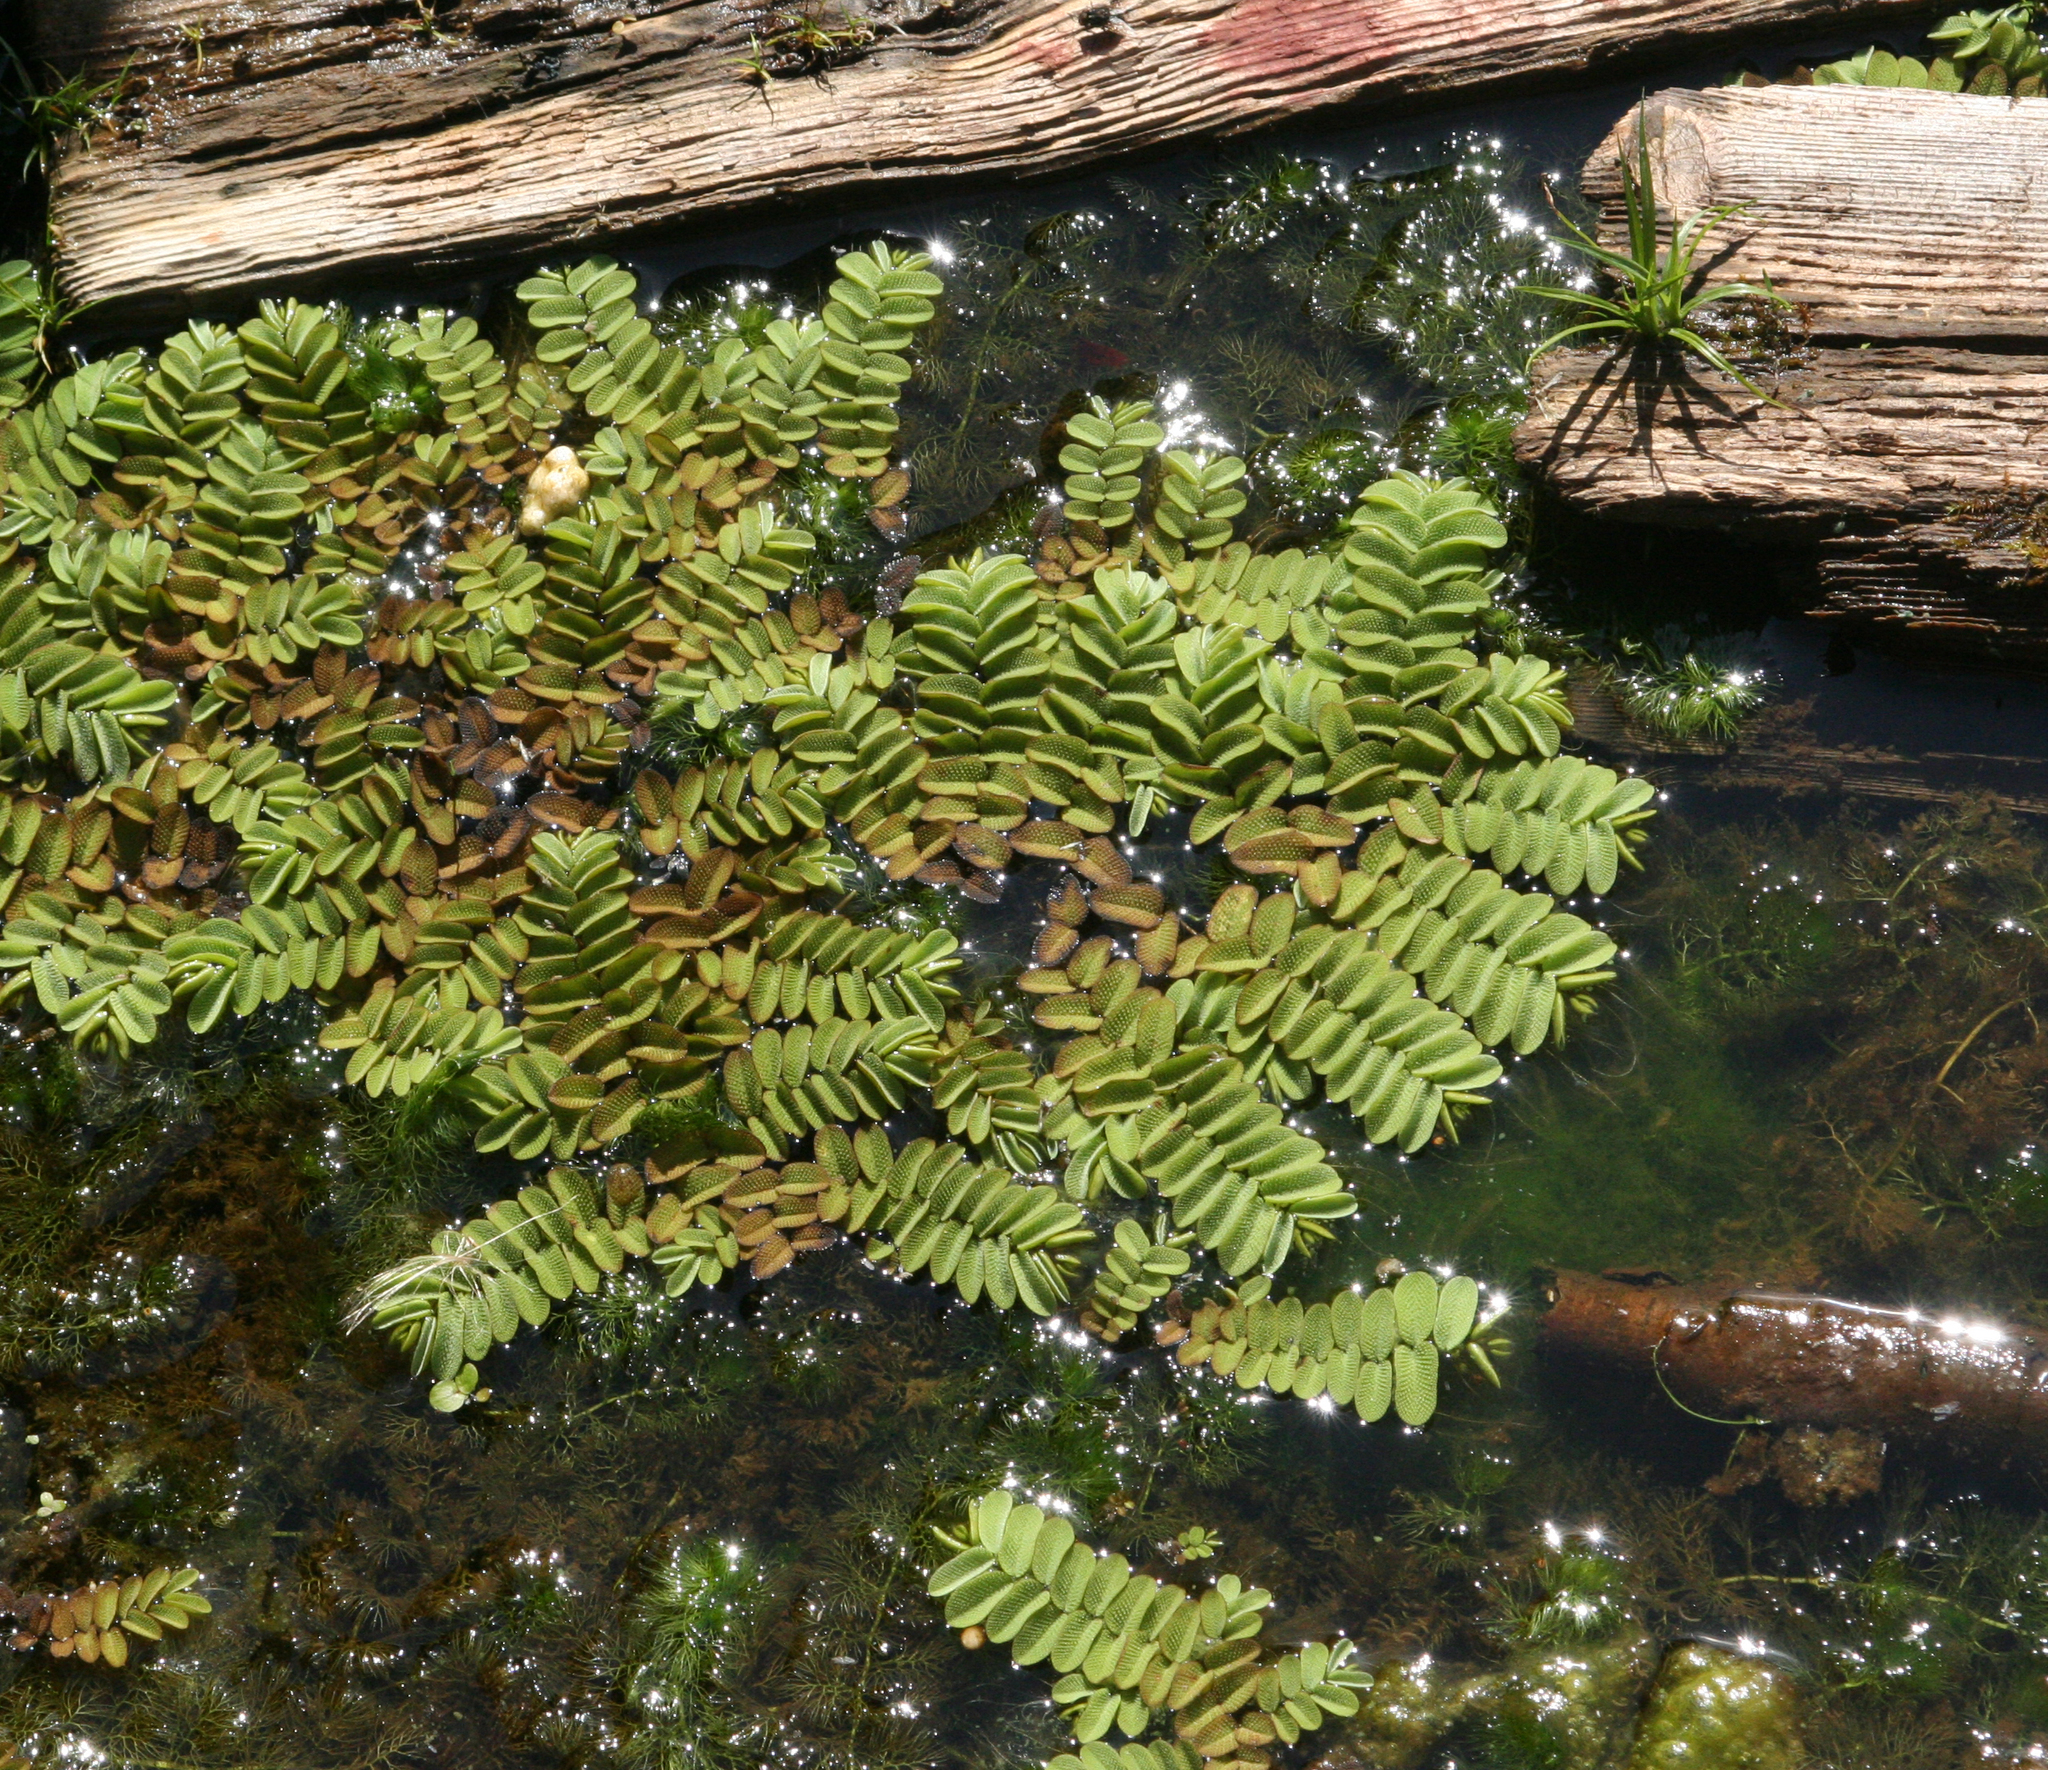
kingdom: Plantae
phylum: Tracheophyta
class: Polypodiopsida
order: Salviniales
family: Salviniaceae
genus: Salvinia
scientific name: Salvinia natans
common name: Floating fern
